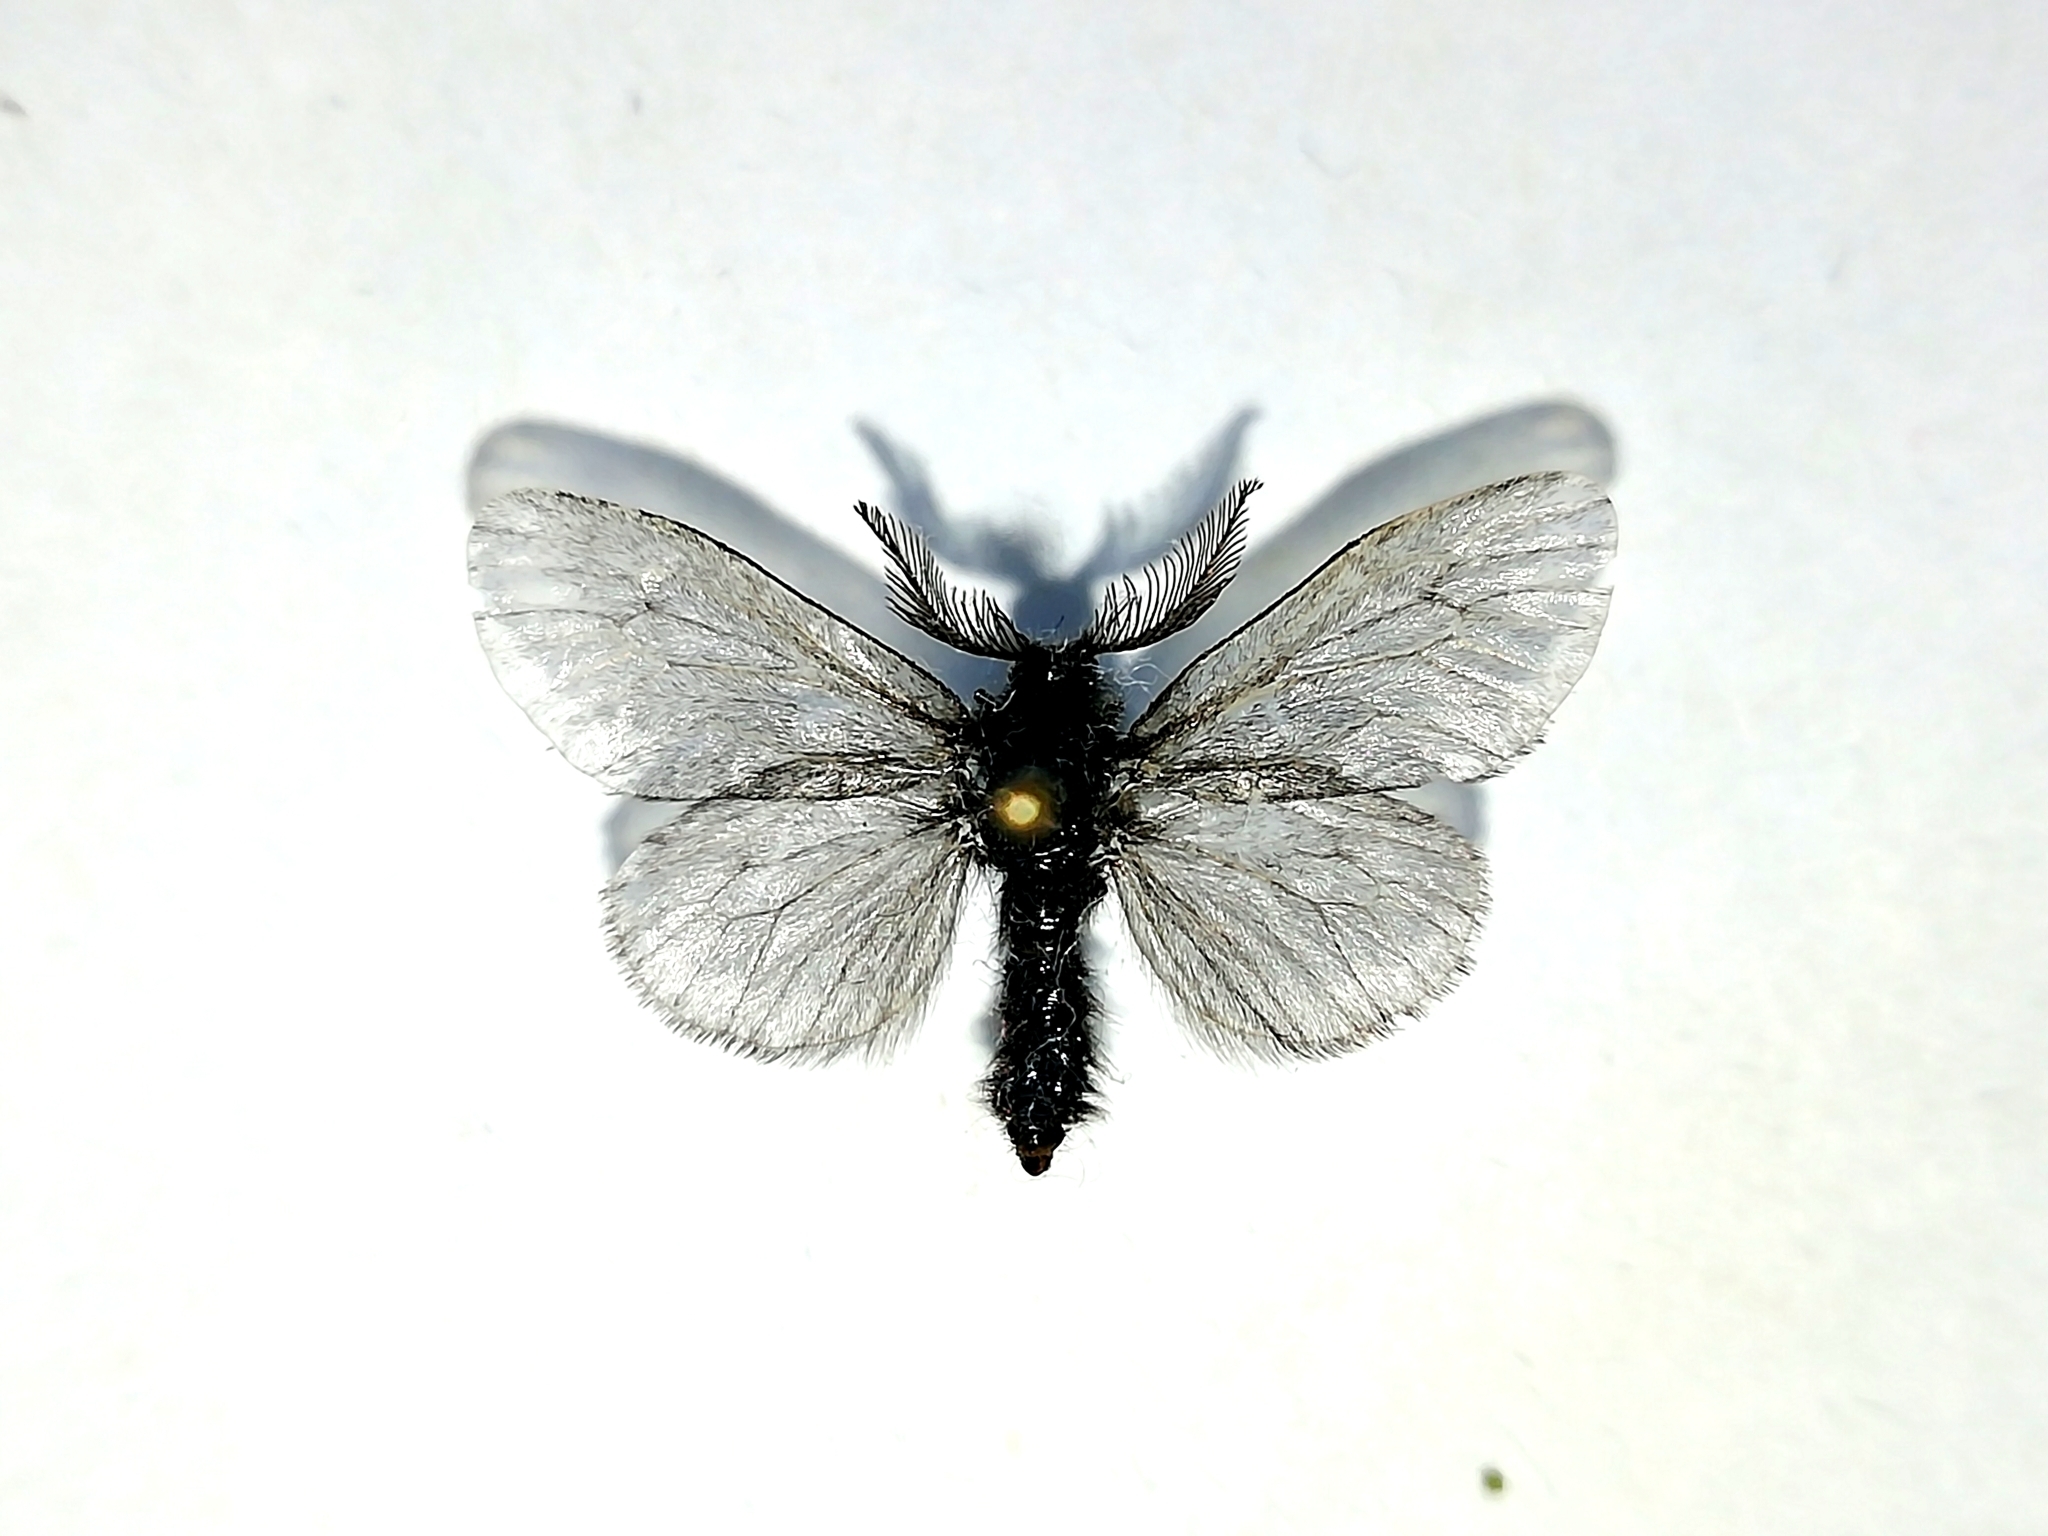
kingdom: Animalia
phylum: Arthropoda
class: Insecta
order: Lepidoptera
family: Psychidae
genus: Canephora
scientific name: Canephora hirsuta
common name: Hairy sweep
